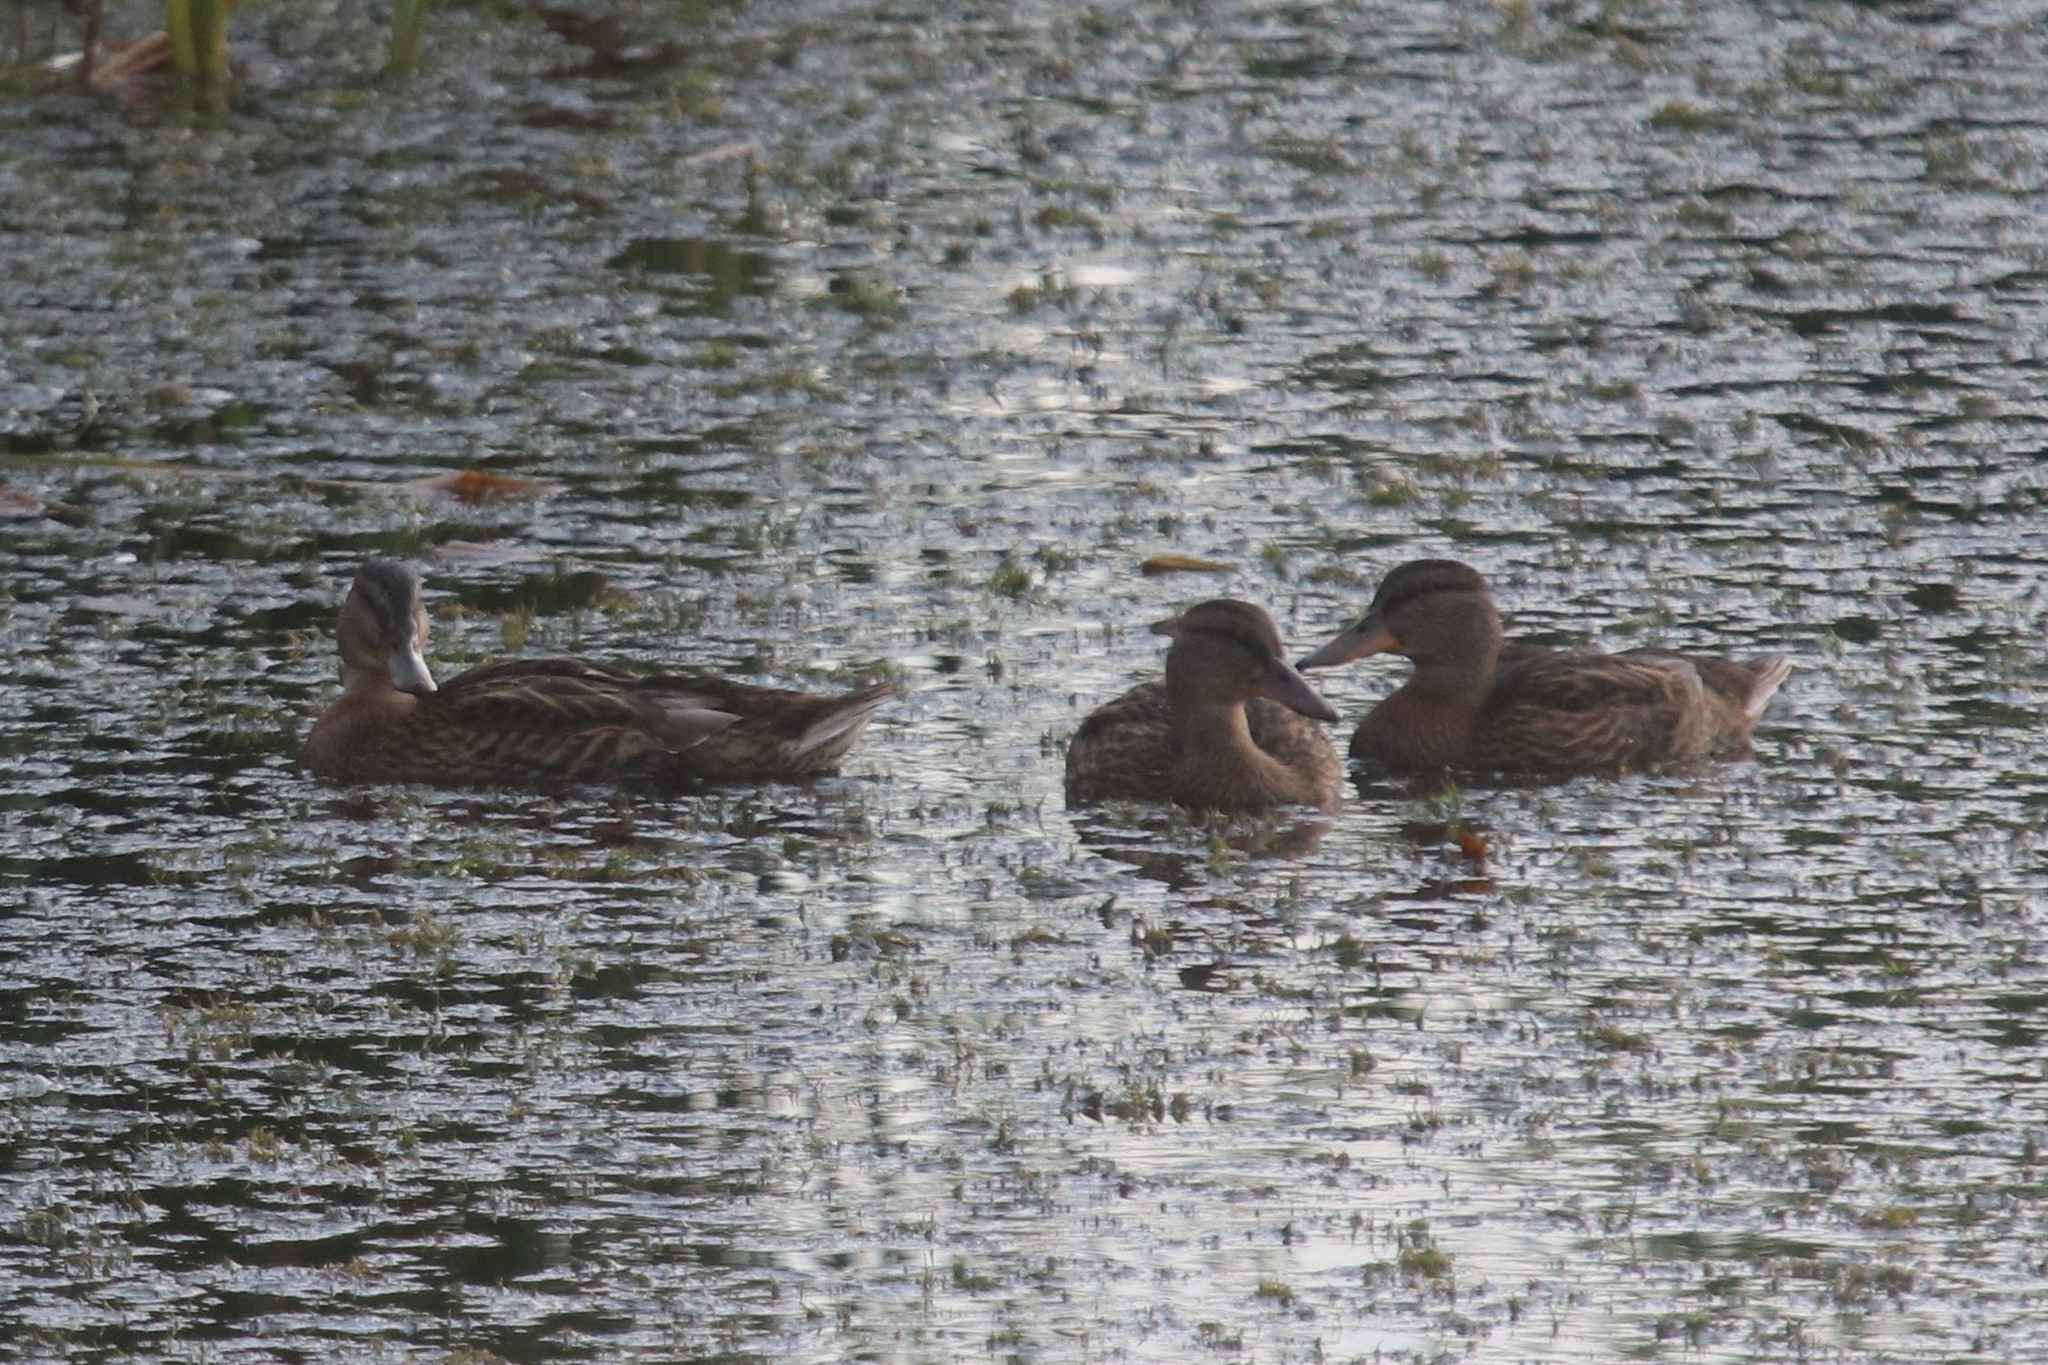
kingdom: Animalia
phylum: Chordata
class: Aves
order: Anseriformes
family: Anatidae
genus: Anas
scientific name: Anas platyrhynchos
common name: Mallard
